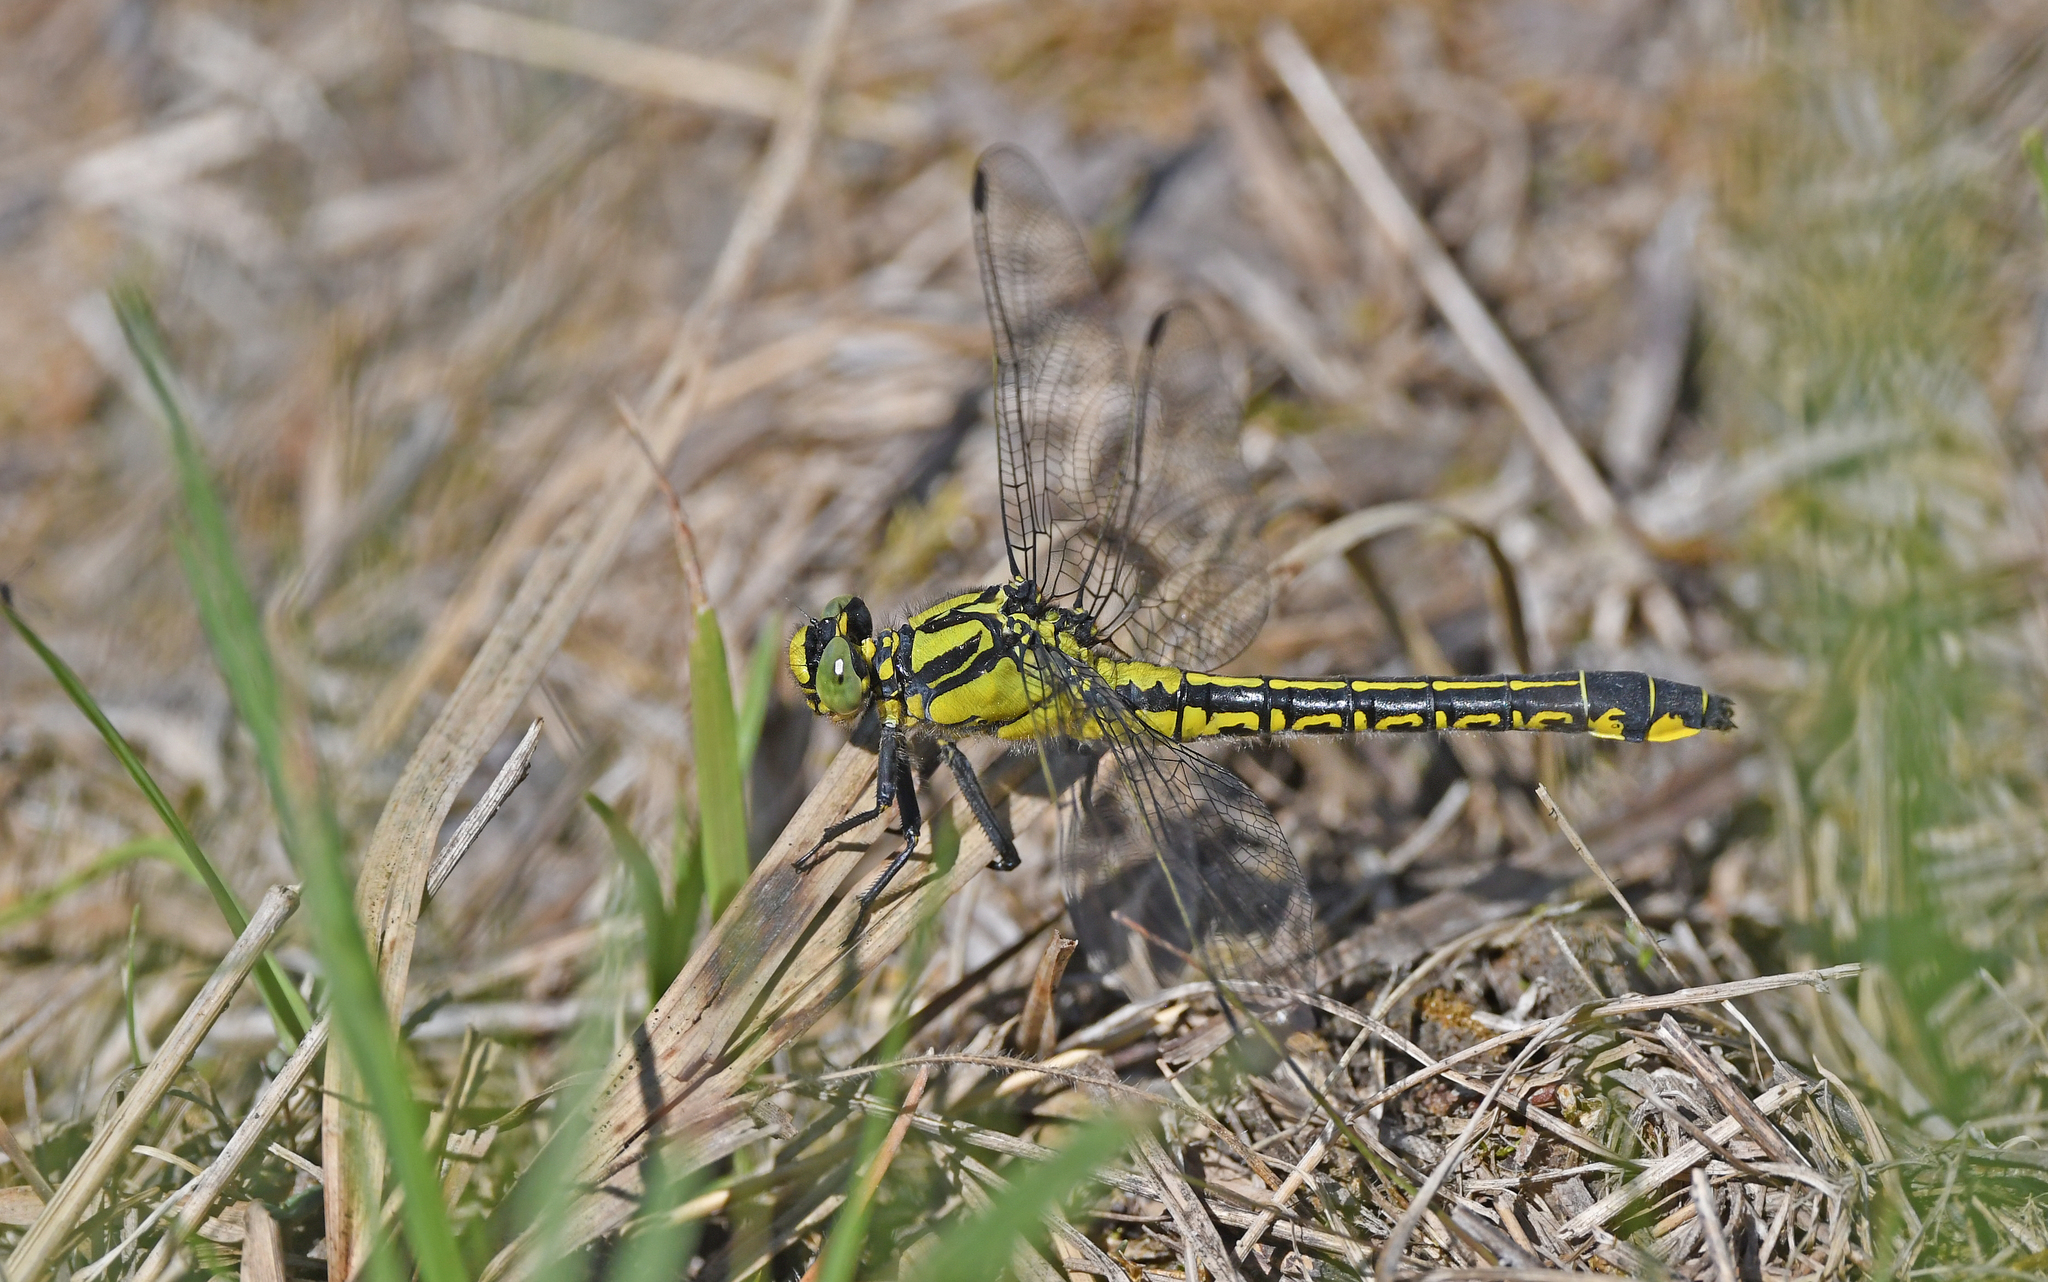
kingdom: Animalia
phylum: Arthropoda
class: Insecta
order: Odonata
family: Gomphidae
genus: Gomphus
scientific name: Gomphus vulgatissimus
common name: Club-tailed dragonfly
